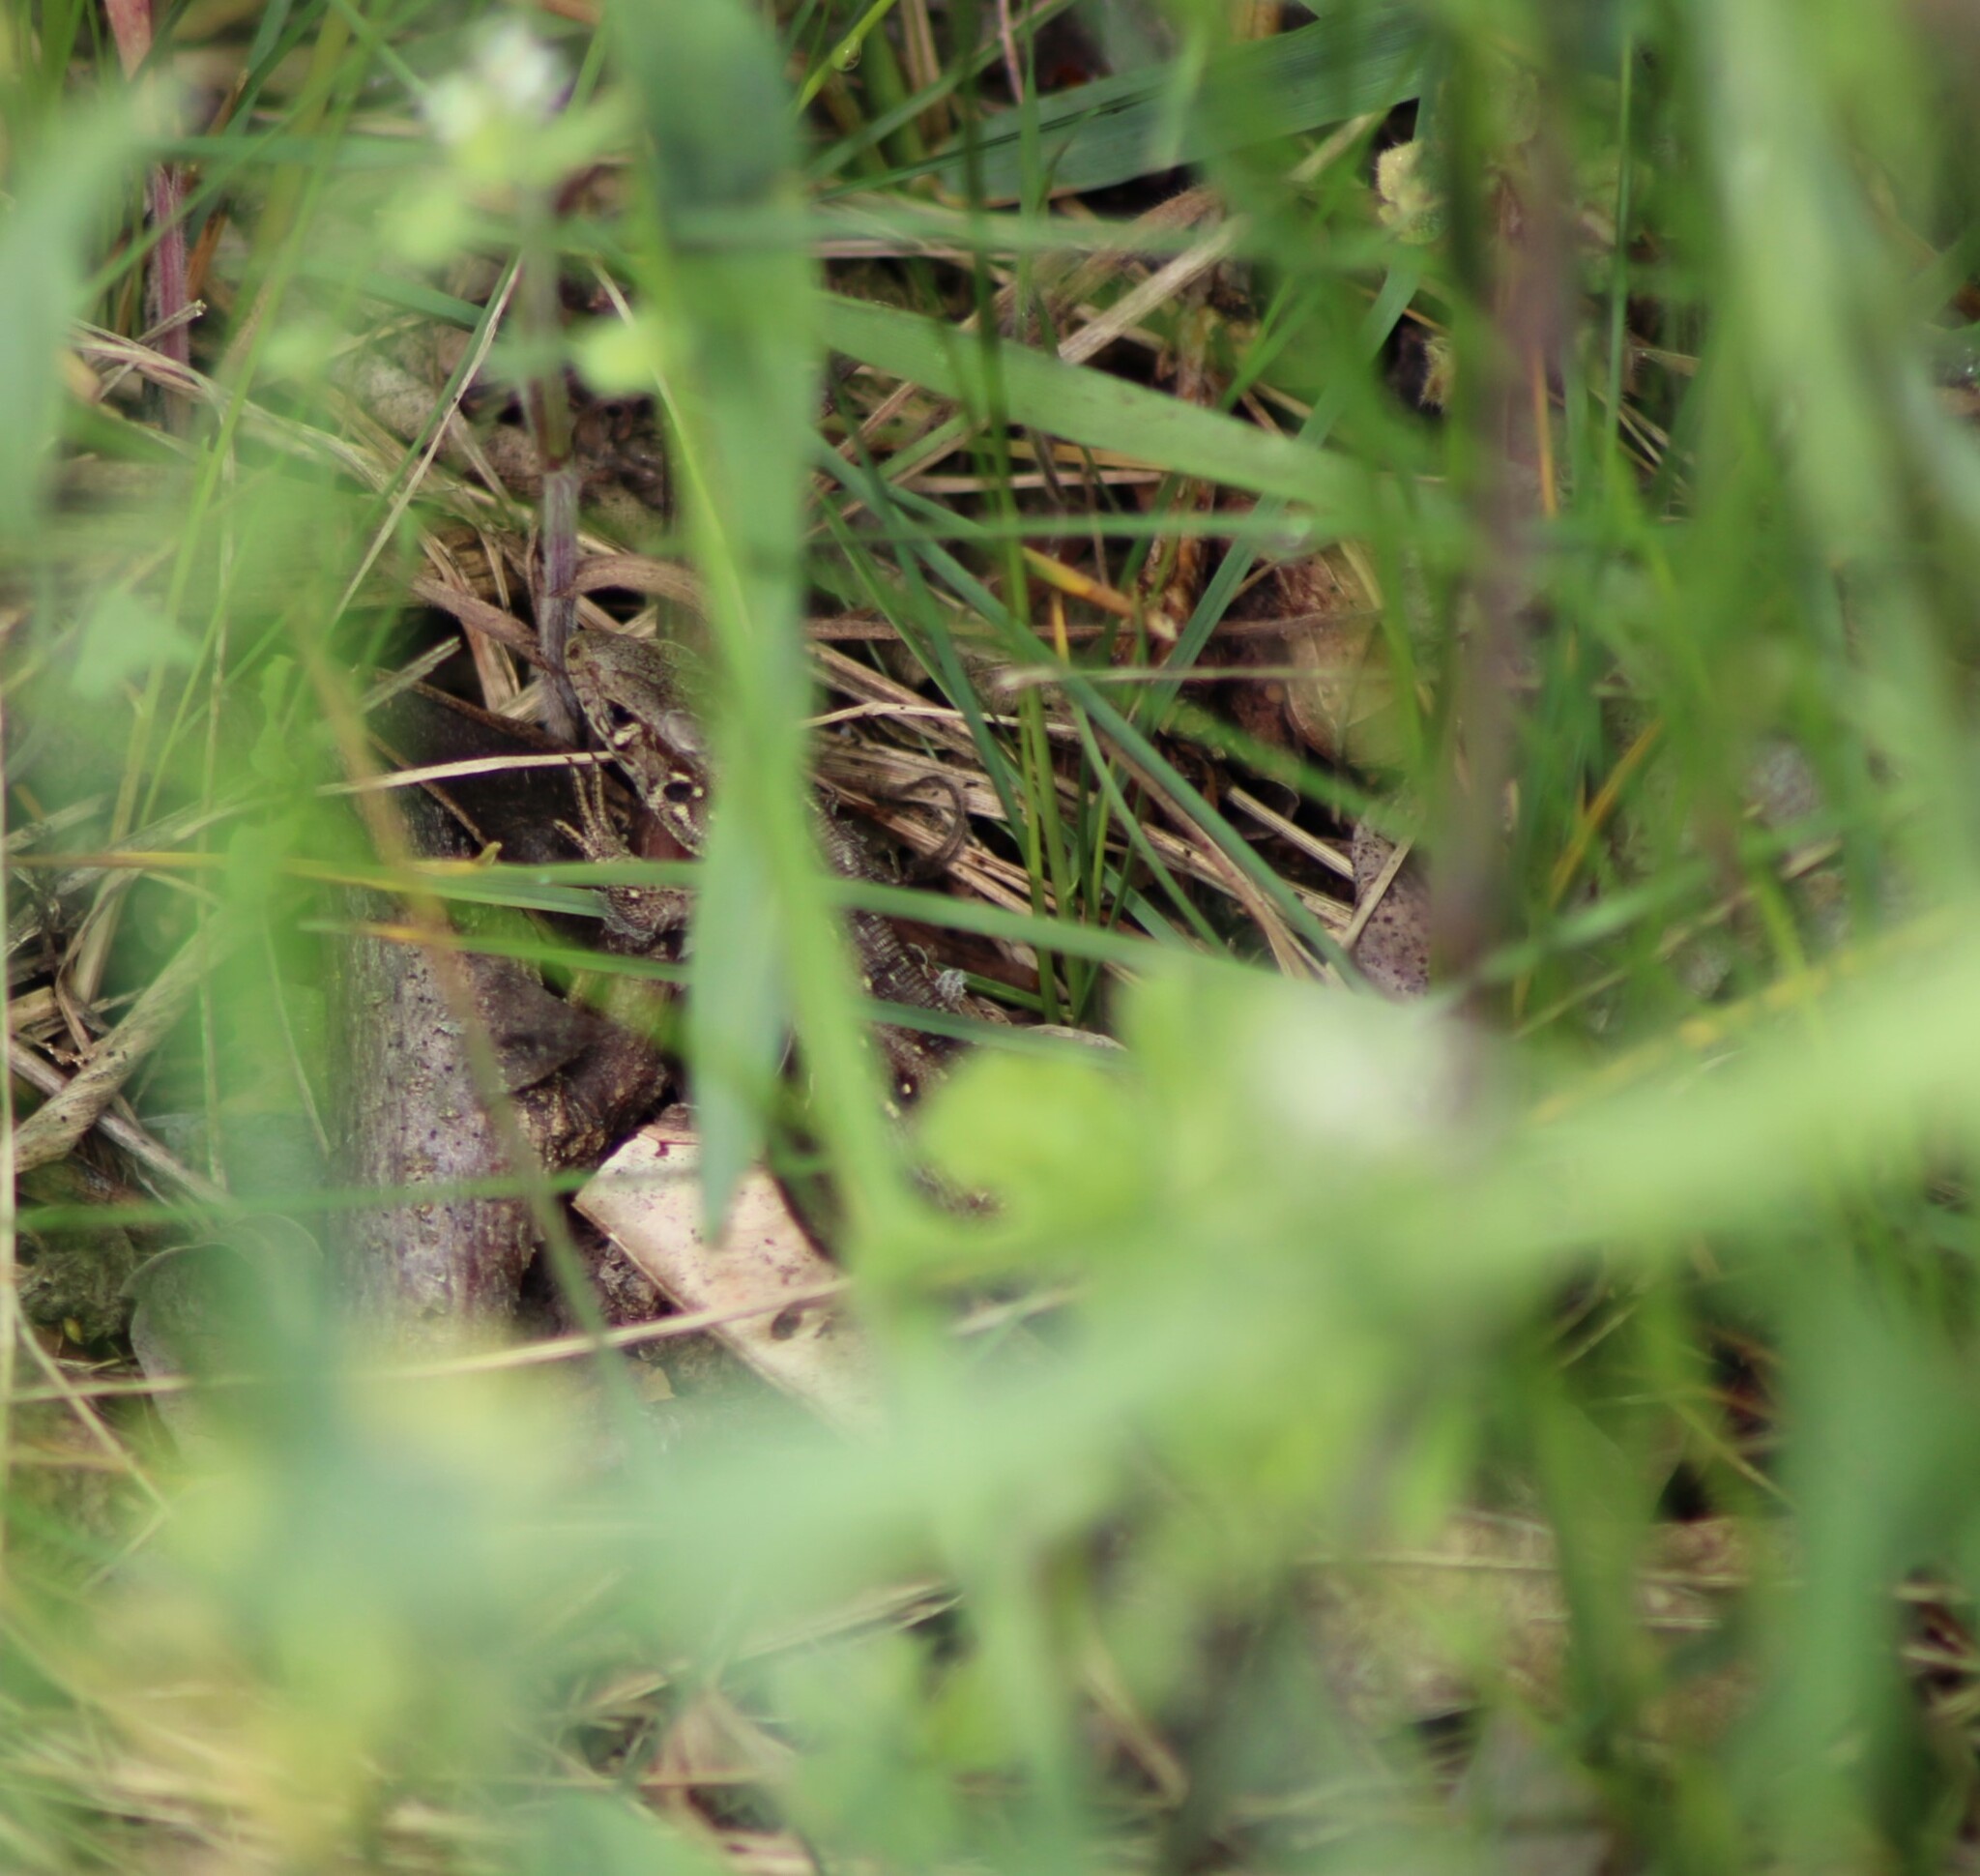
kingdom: Animalia
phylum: Chordata
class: Squamata
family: Lacertidae
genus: Lacerta
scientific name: Lacerta agilis
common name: Sand lizard
